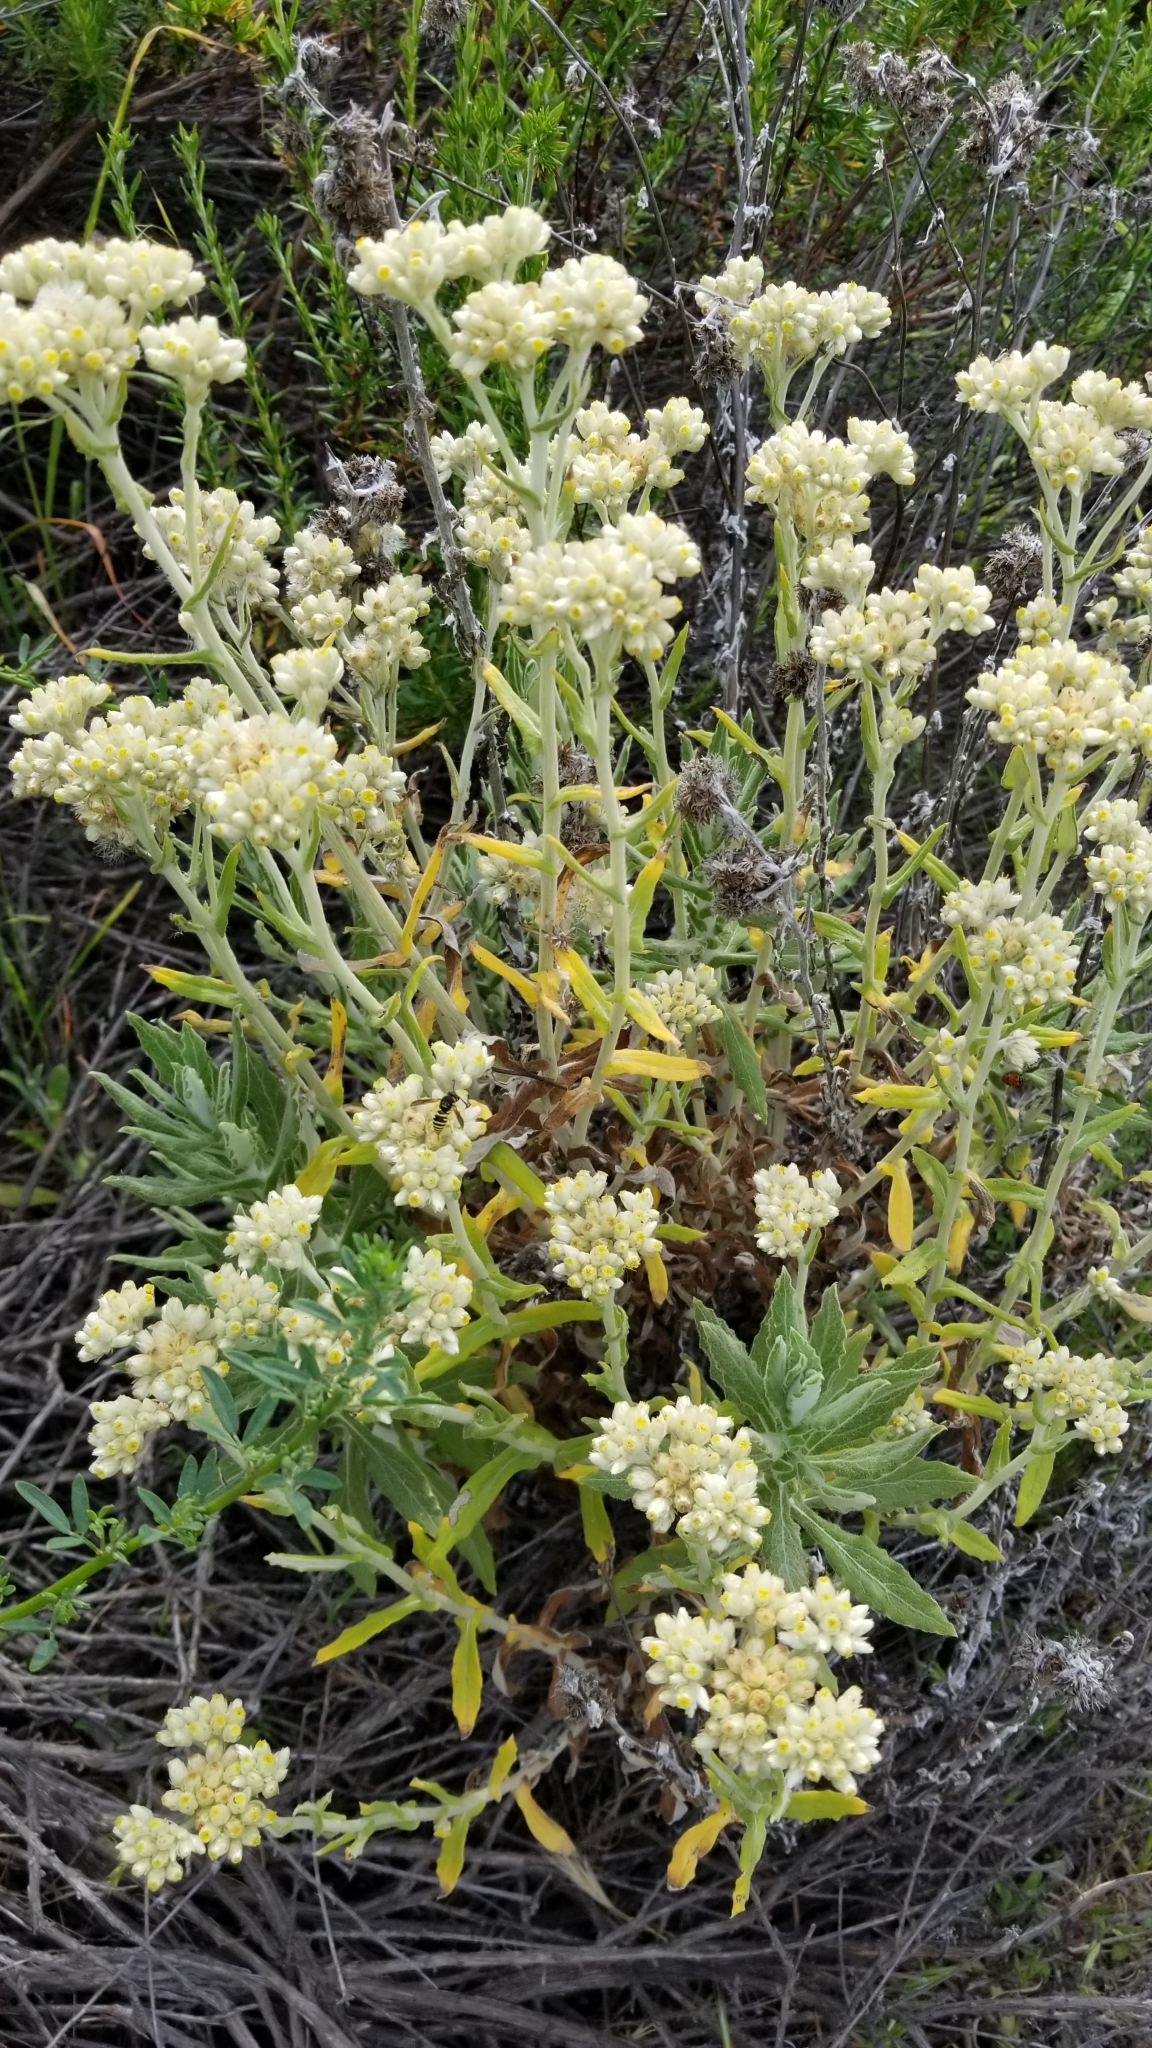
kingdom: Plantae
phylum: Tracheophyta
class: Magnoliopsida
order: Asterales
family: Asteraceae
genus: Pseudognaphalium
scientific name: Pseudognaphalium biolettii
